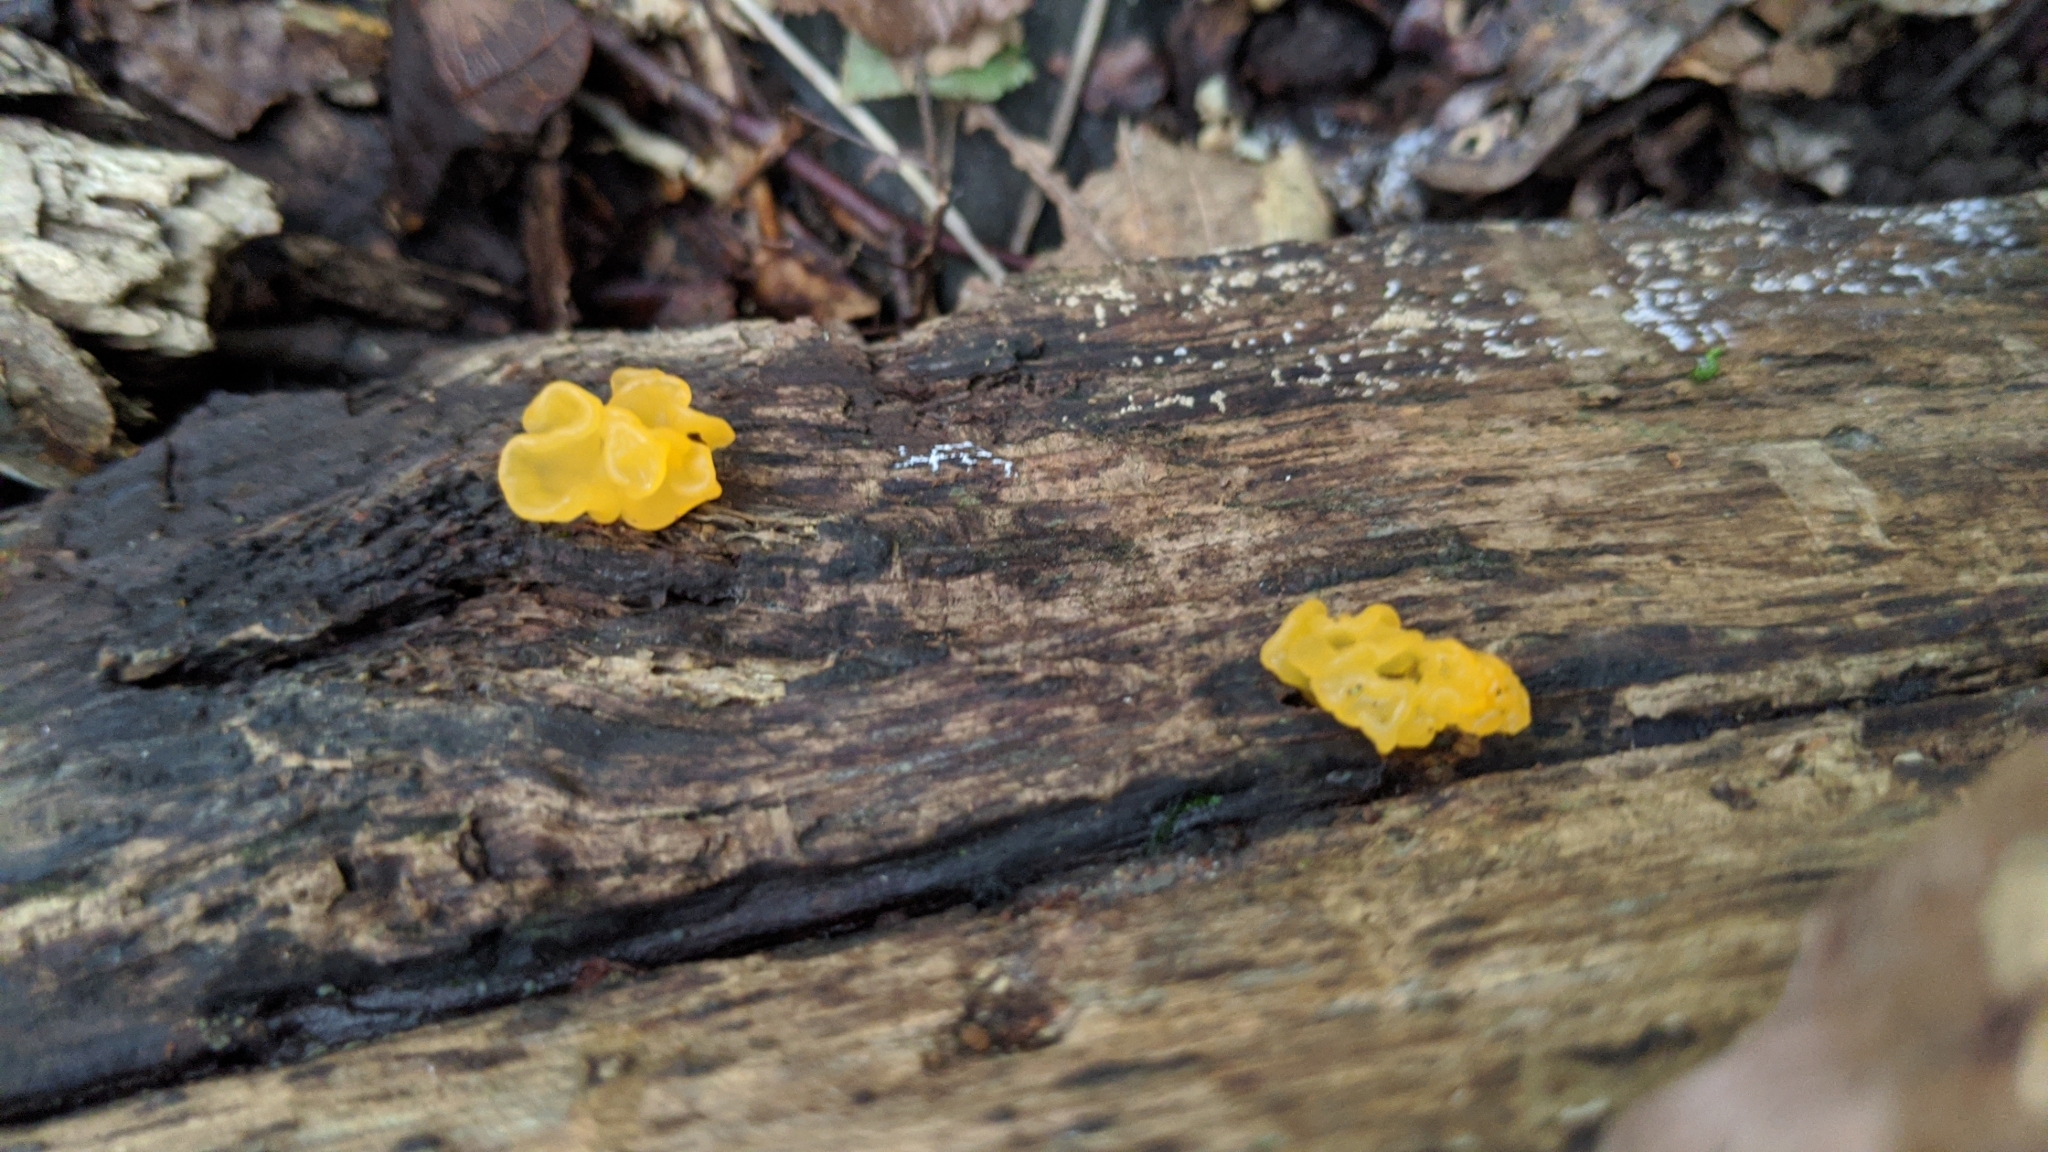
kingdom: Fungi
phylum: Basidiomycota
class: Tremellomycetes
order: Tremellales
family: Tremellaceae
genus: Tremella
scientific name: Tremella mesenterica
